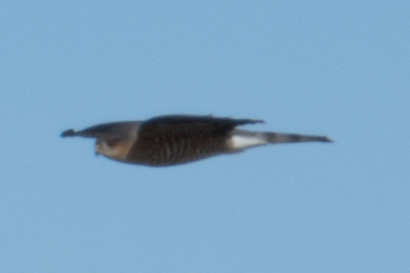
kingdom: Animalia
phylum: Chordata
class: Aves
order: Accipitriformes
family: Accipitridae
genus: Accipiter
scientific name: Accipiter striatus
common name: Sharp-shinned hawk
